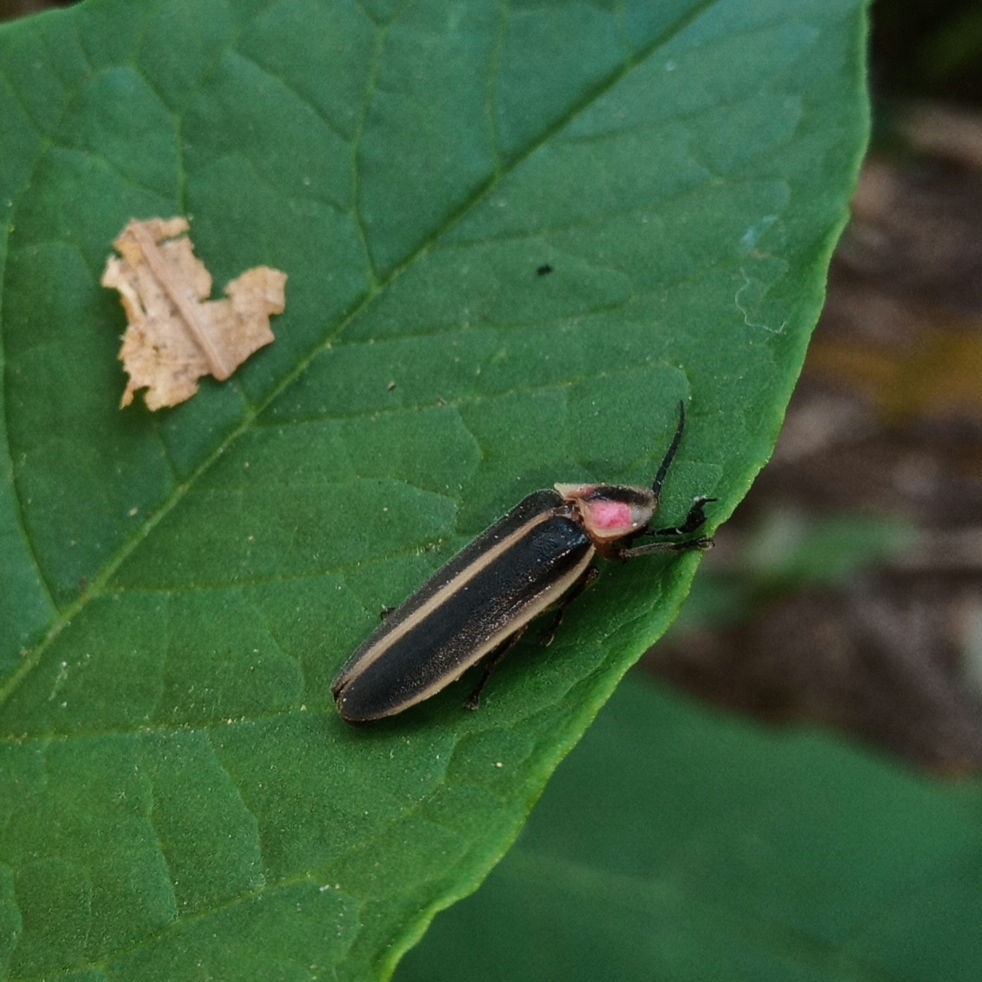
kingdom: Animalia
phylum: Arthropoda
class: Insecta
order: Coleoptera
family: Lampyridae
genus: Photinus
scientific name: Photinus pyralis
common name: Big dipper firefly
